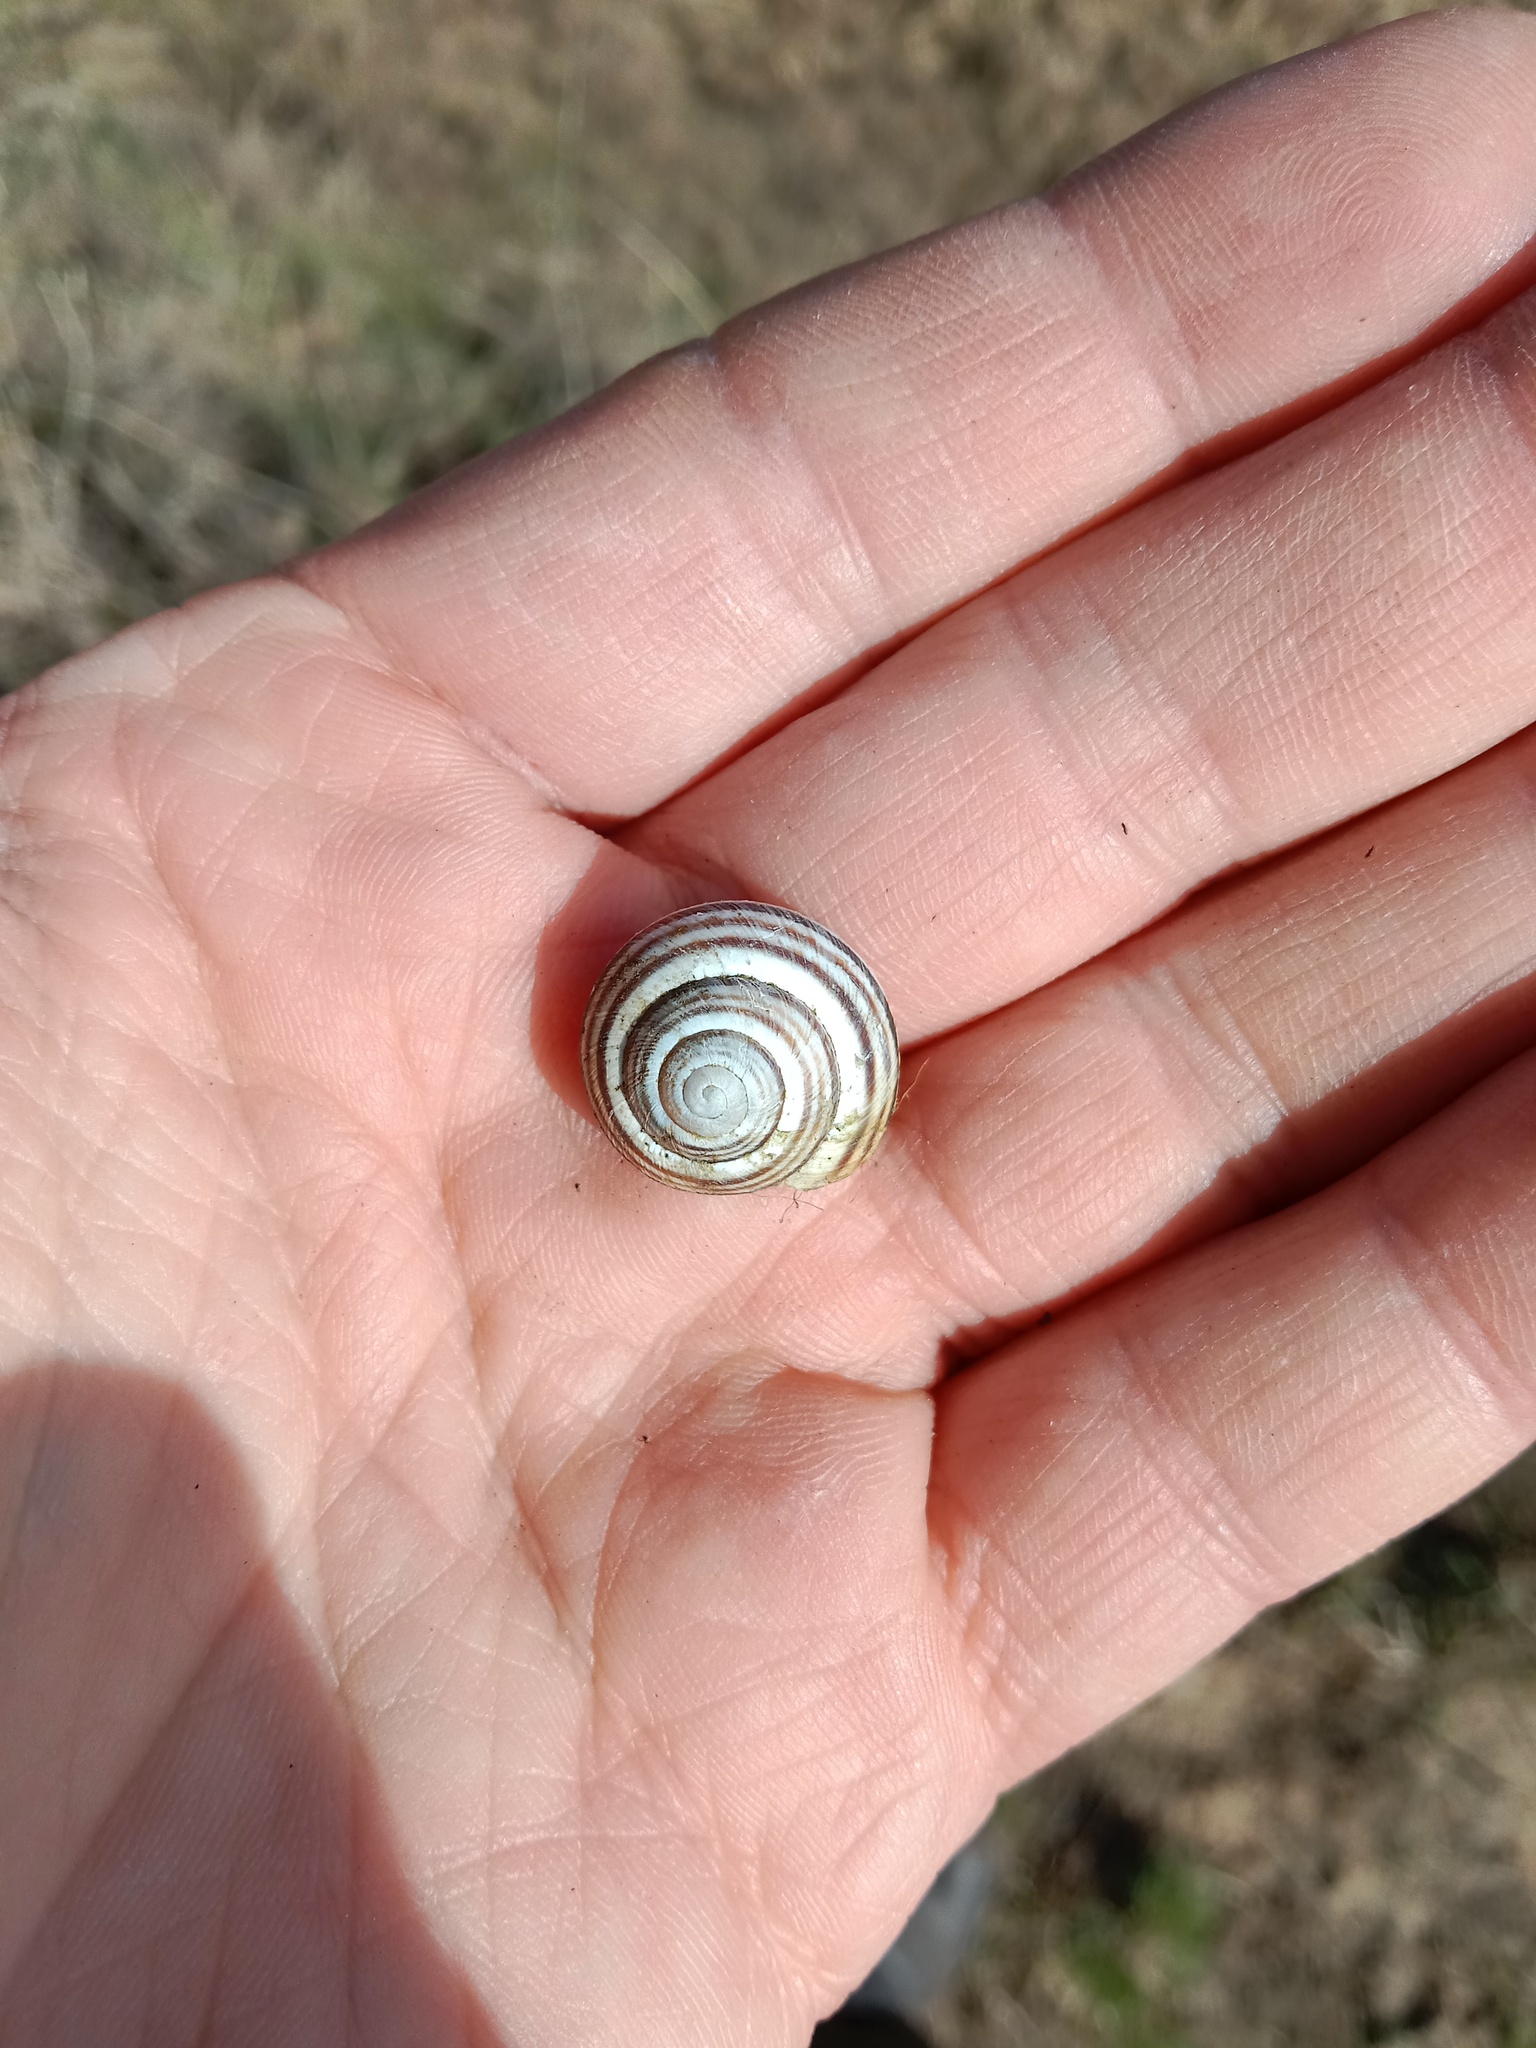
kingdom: Animalia
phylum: Mollusca
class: Gastropoda
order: Stylommatophora
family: Helicidae
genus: Caucasotachea
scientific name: Caucasotachea vindobonensis
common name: European helicid land snail
